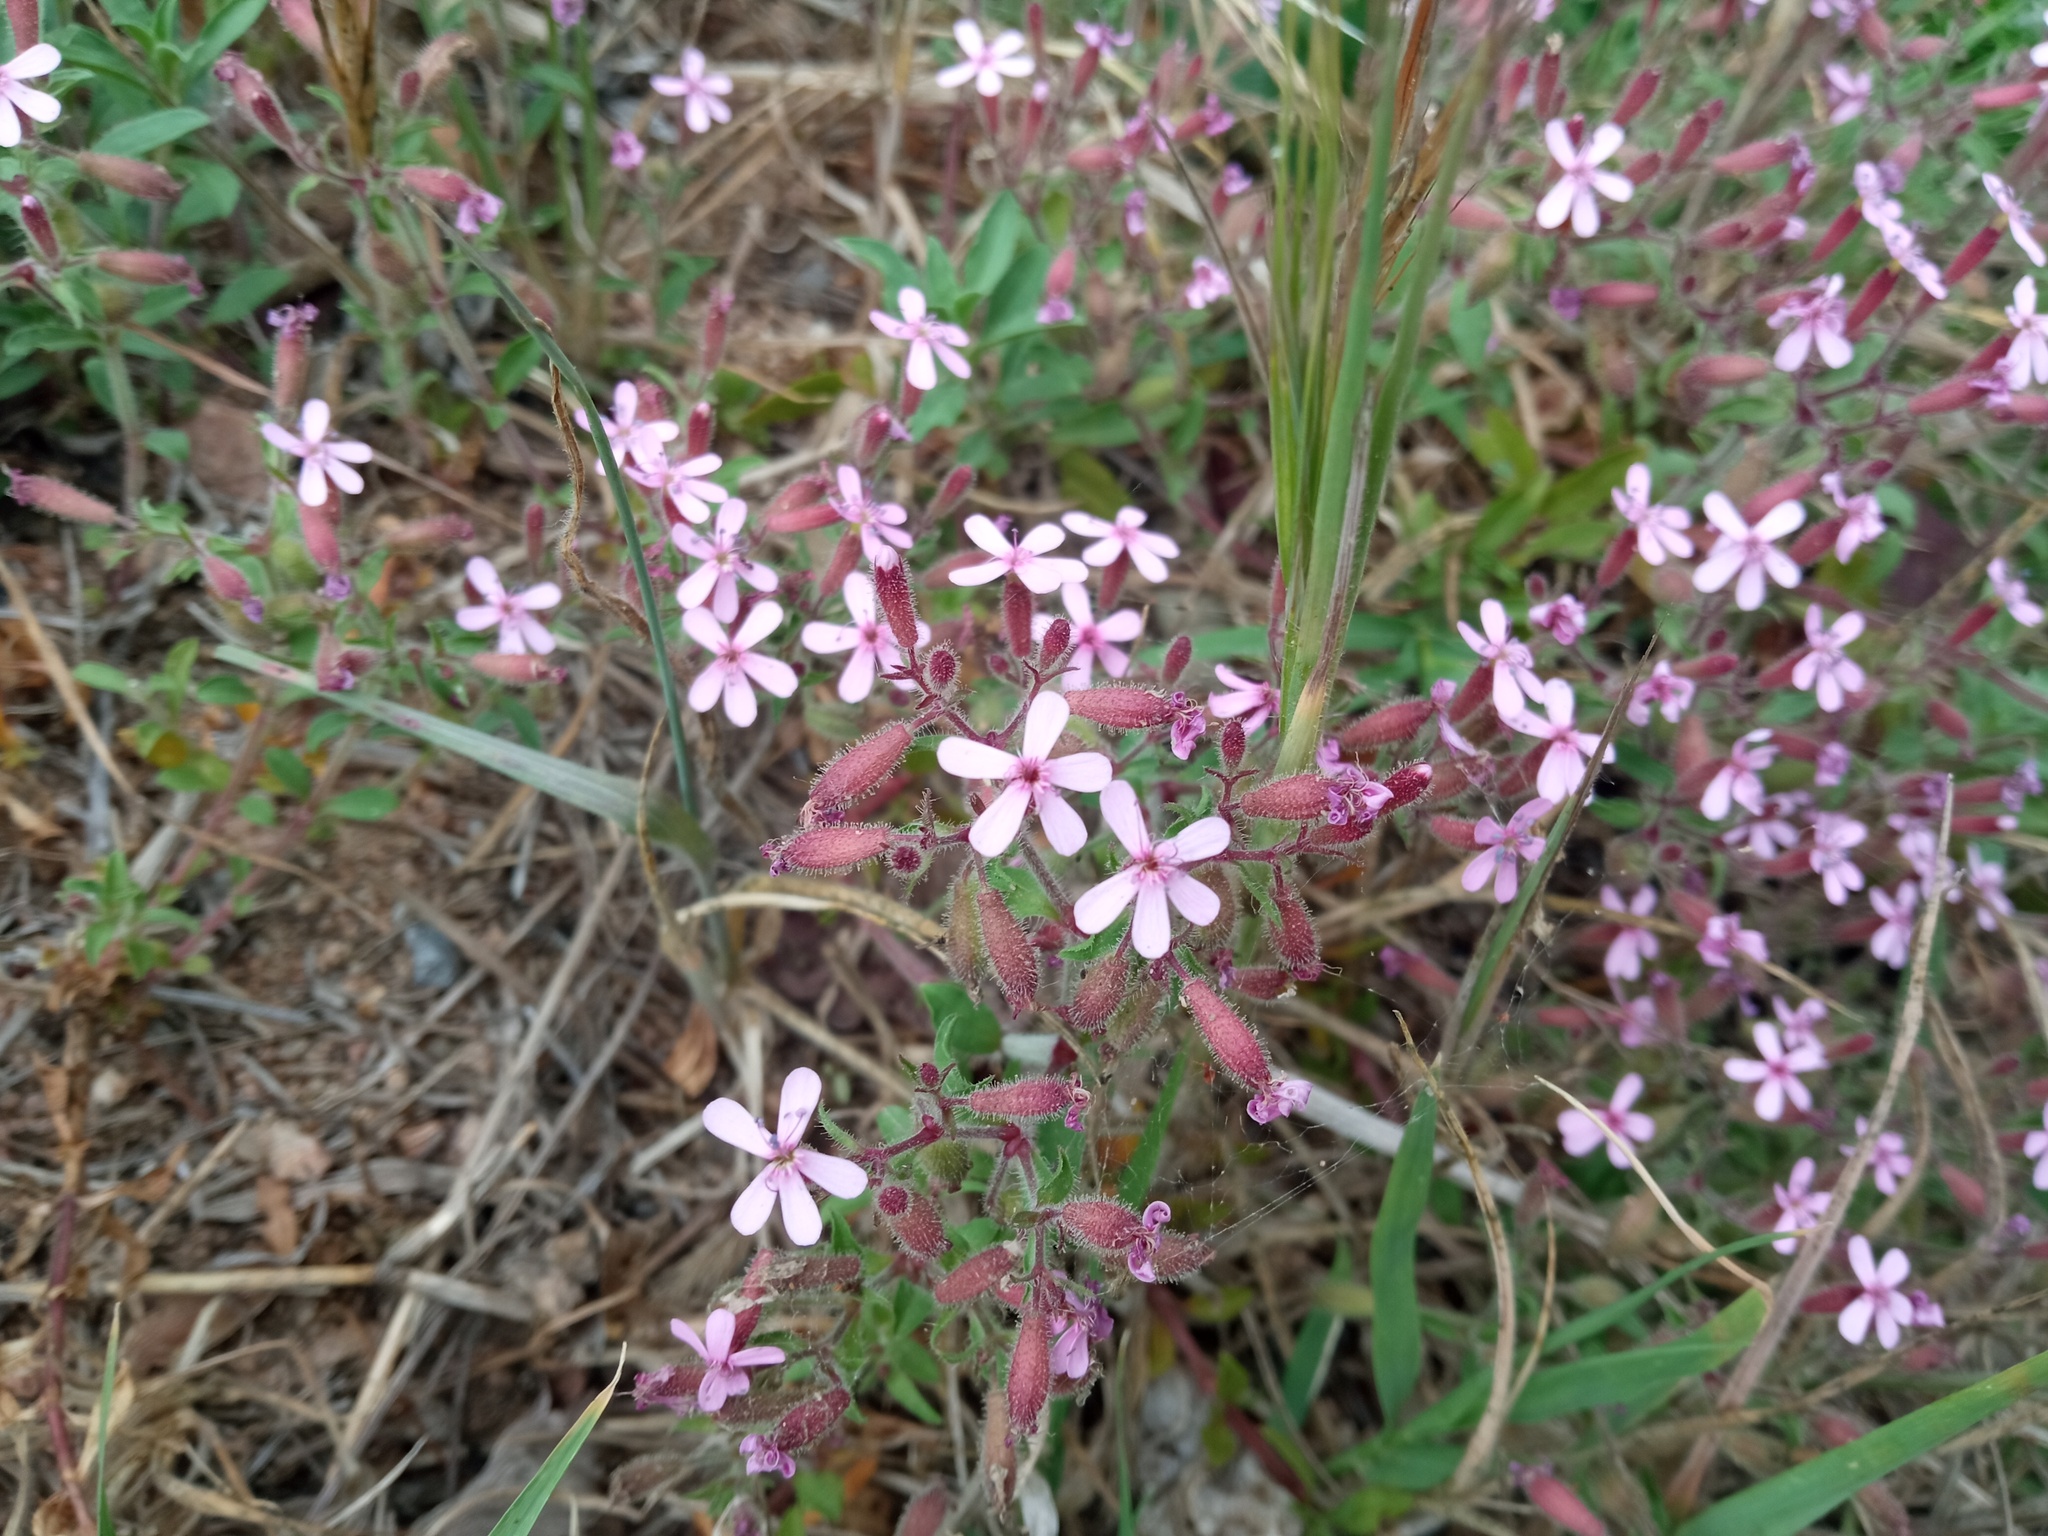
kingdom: Plantae
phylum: Tracheophyta
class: Magnoliopsida
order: Caryophyllales
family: Caryophyllaceae
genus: Saponaria
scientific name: Saponaria ocymoides
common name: Rock soapwort
